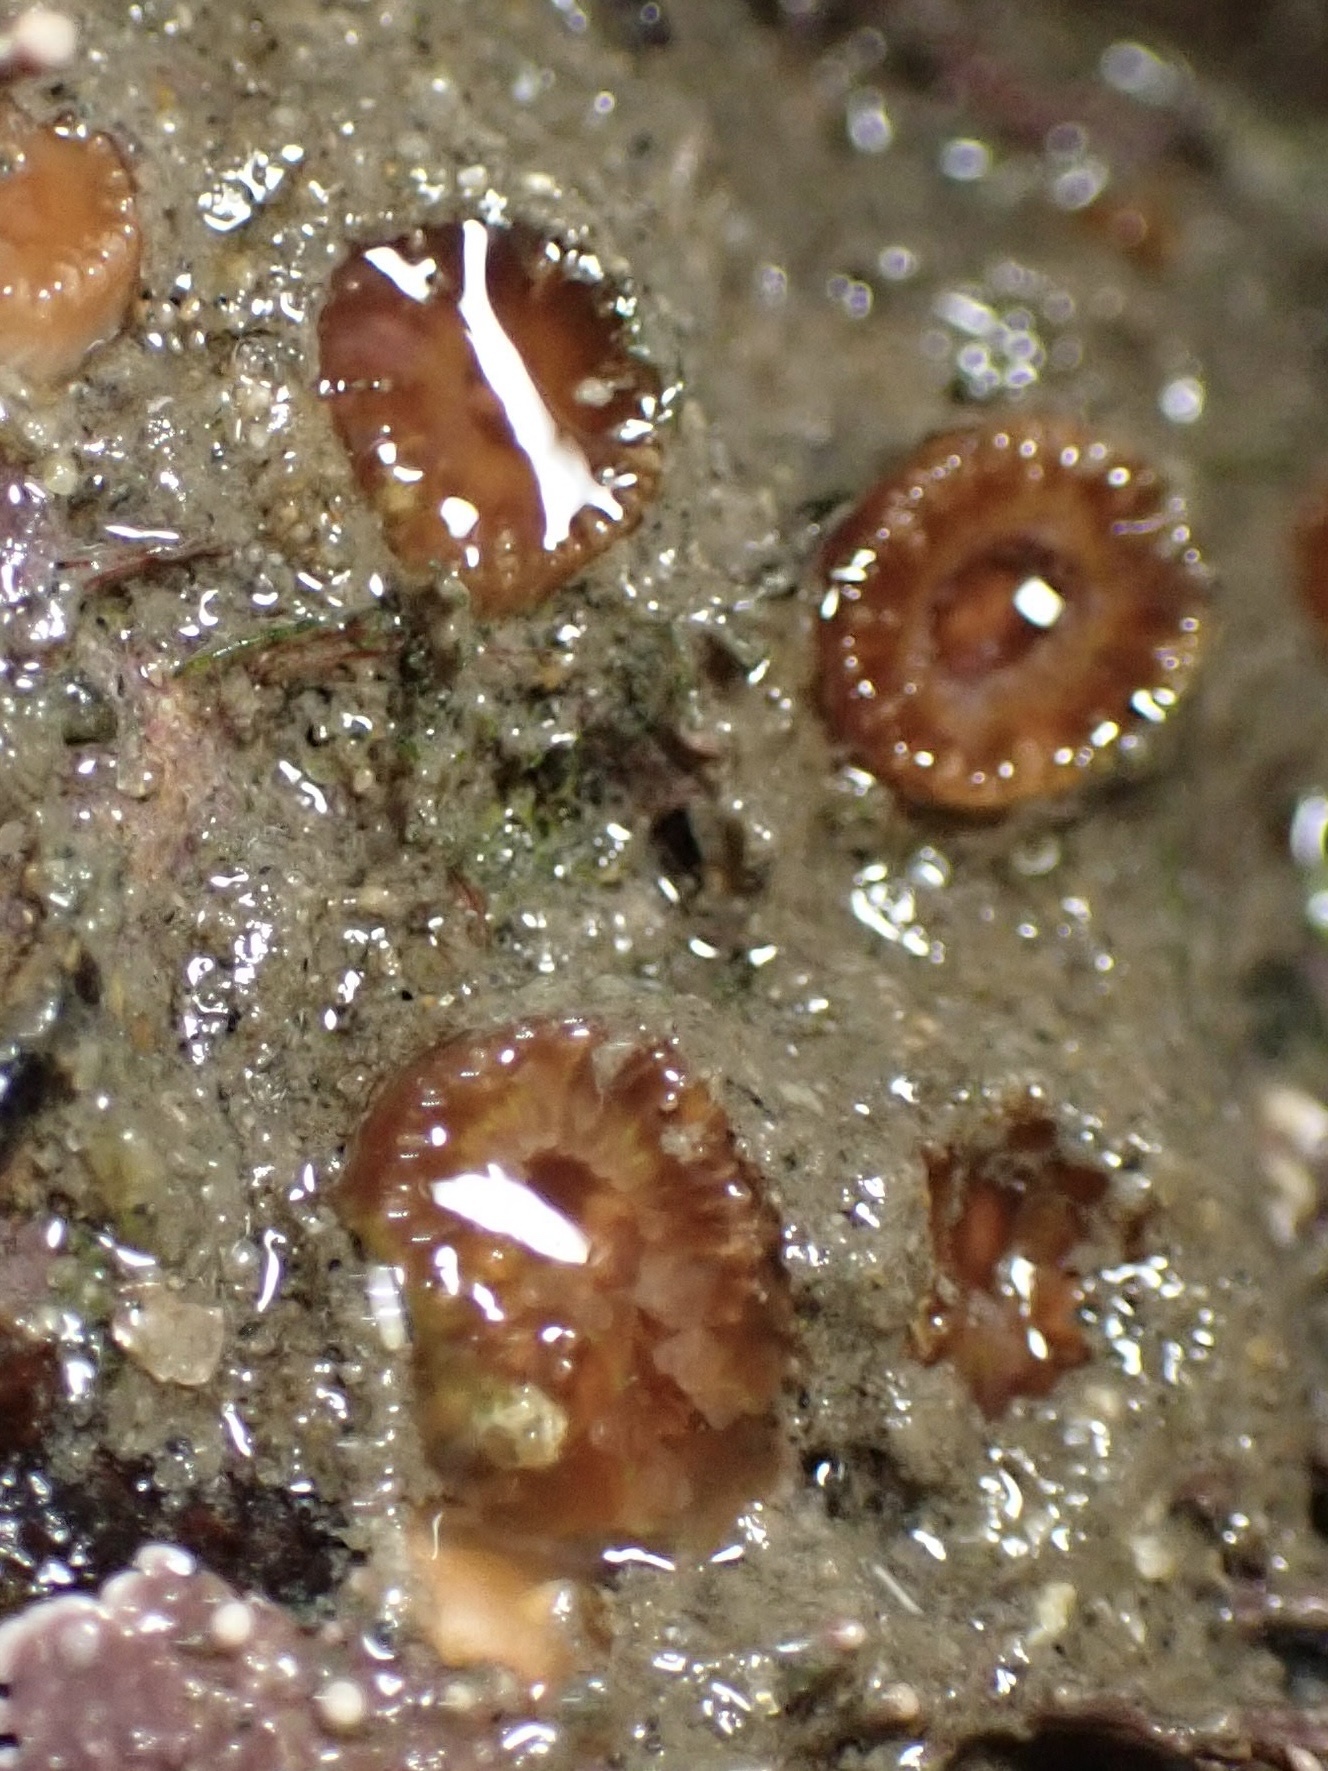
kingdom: Animalia
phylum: Cnidaria
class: Anthozoa
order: Scleractinia
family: Astrangiidae
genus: Astrangia
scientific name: Astrangia haimei
